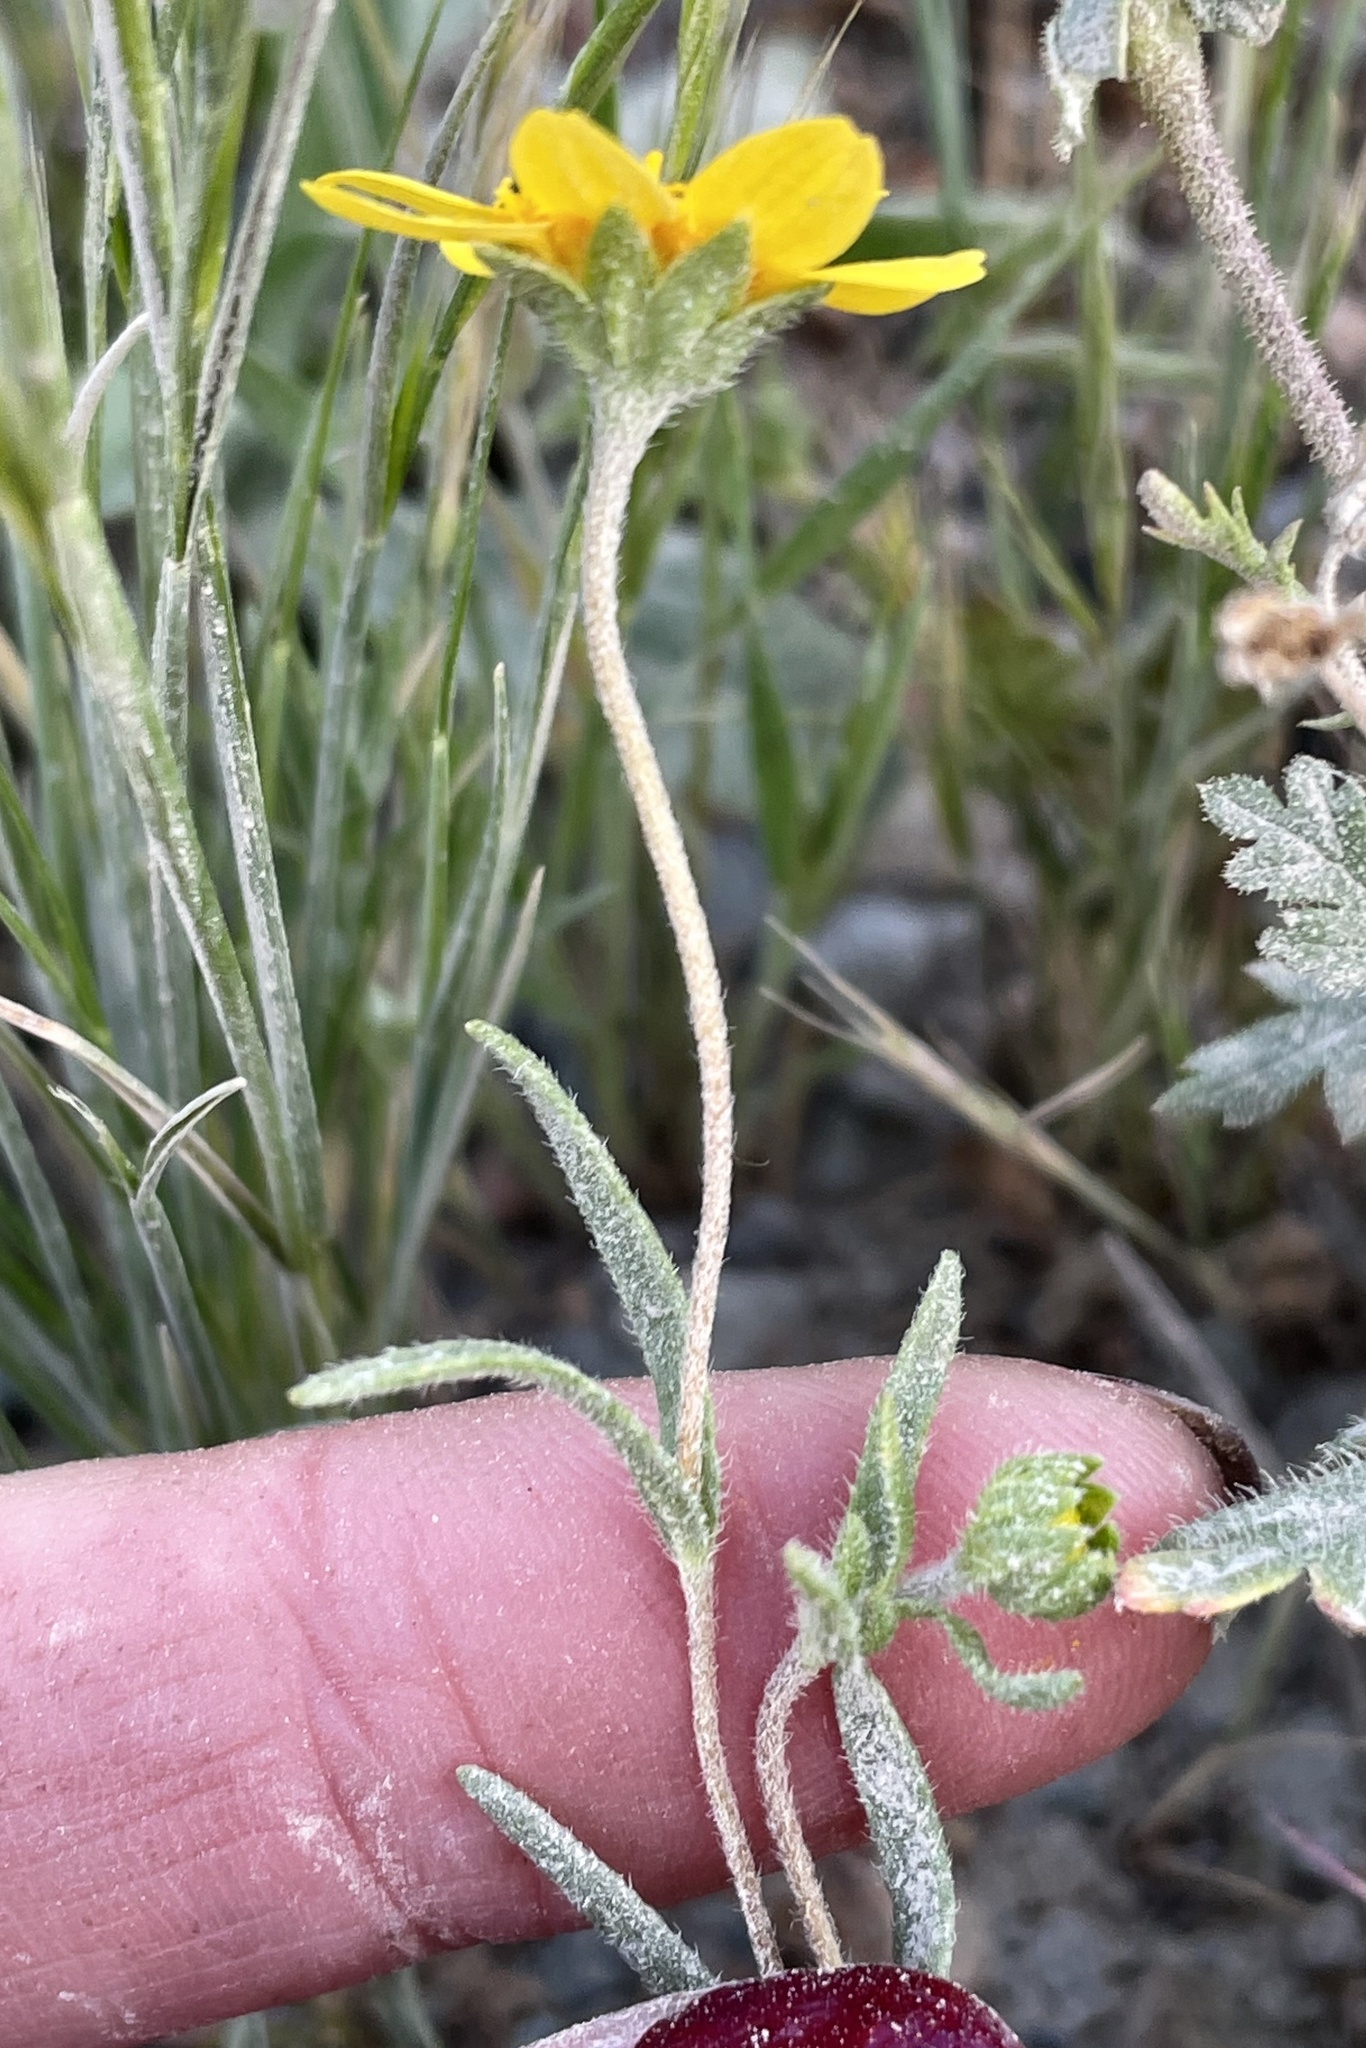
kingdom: Plantae
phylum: Tracheophyta
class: Magnoliopsida
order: Asterales
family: Asteraceae
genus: Lasthenia
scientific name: Lasthenia gracilis
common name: Common goldfields
